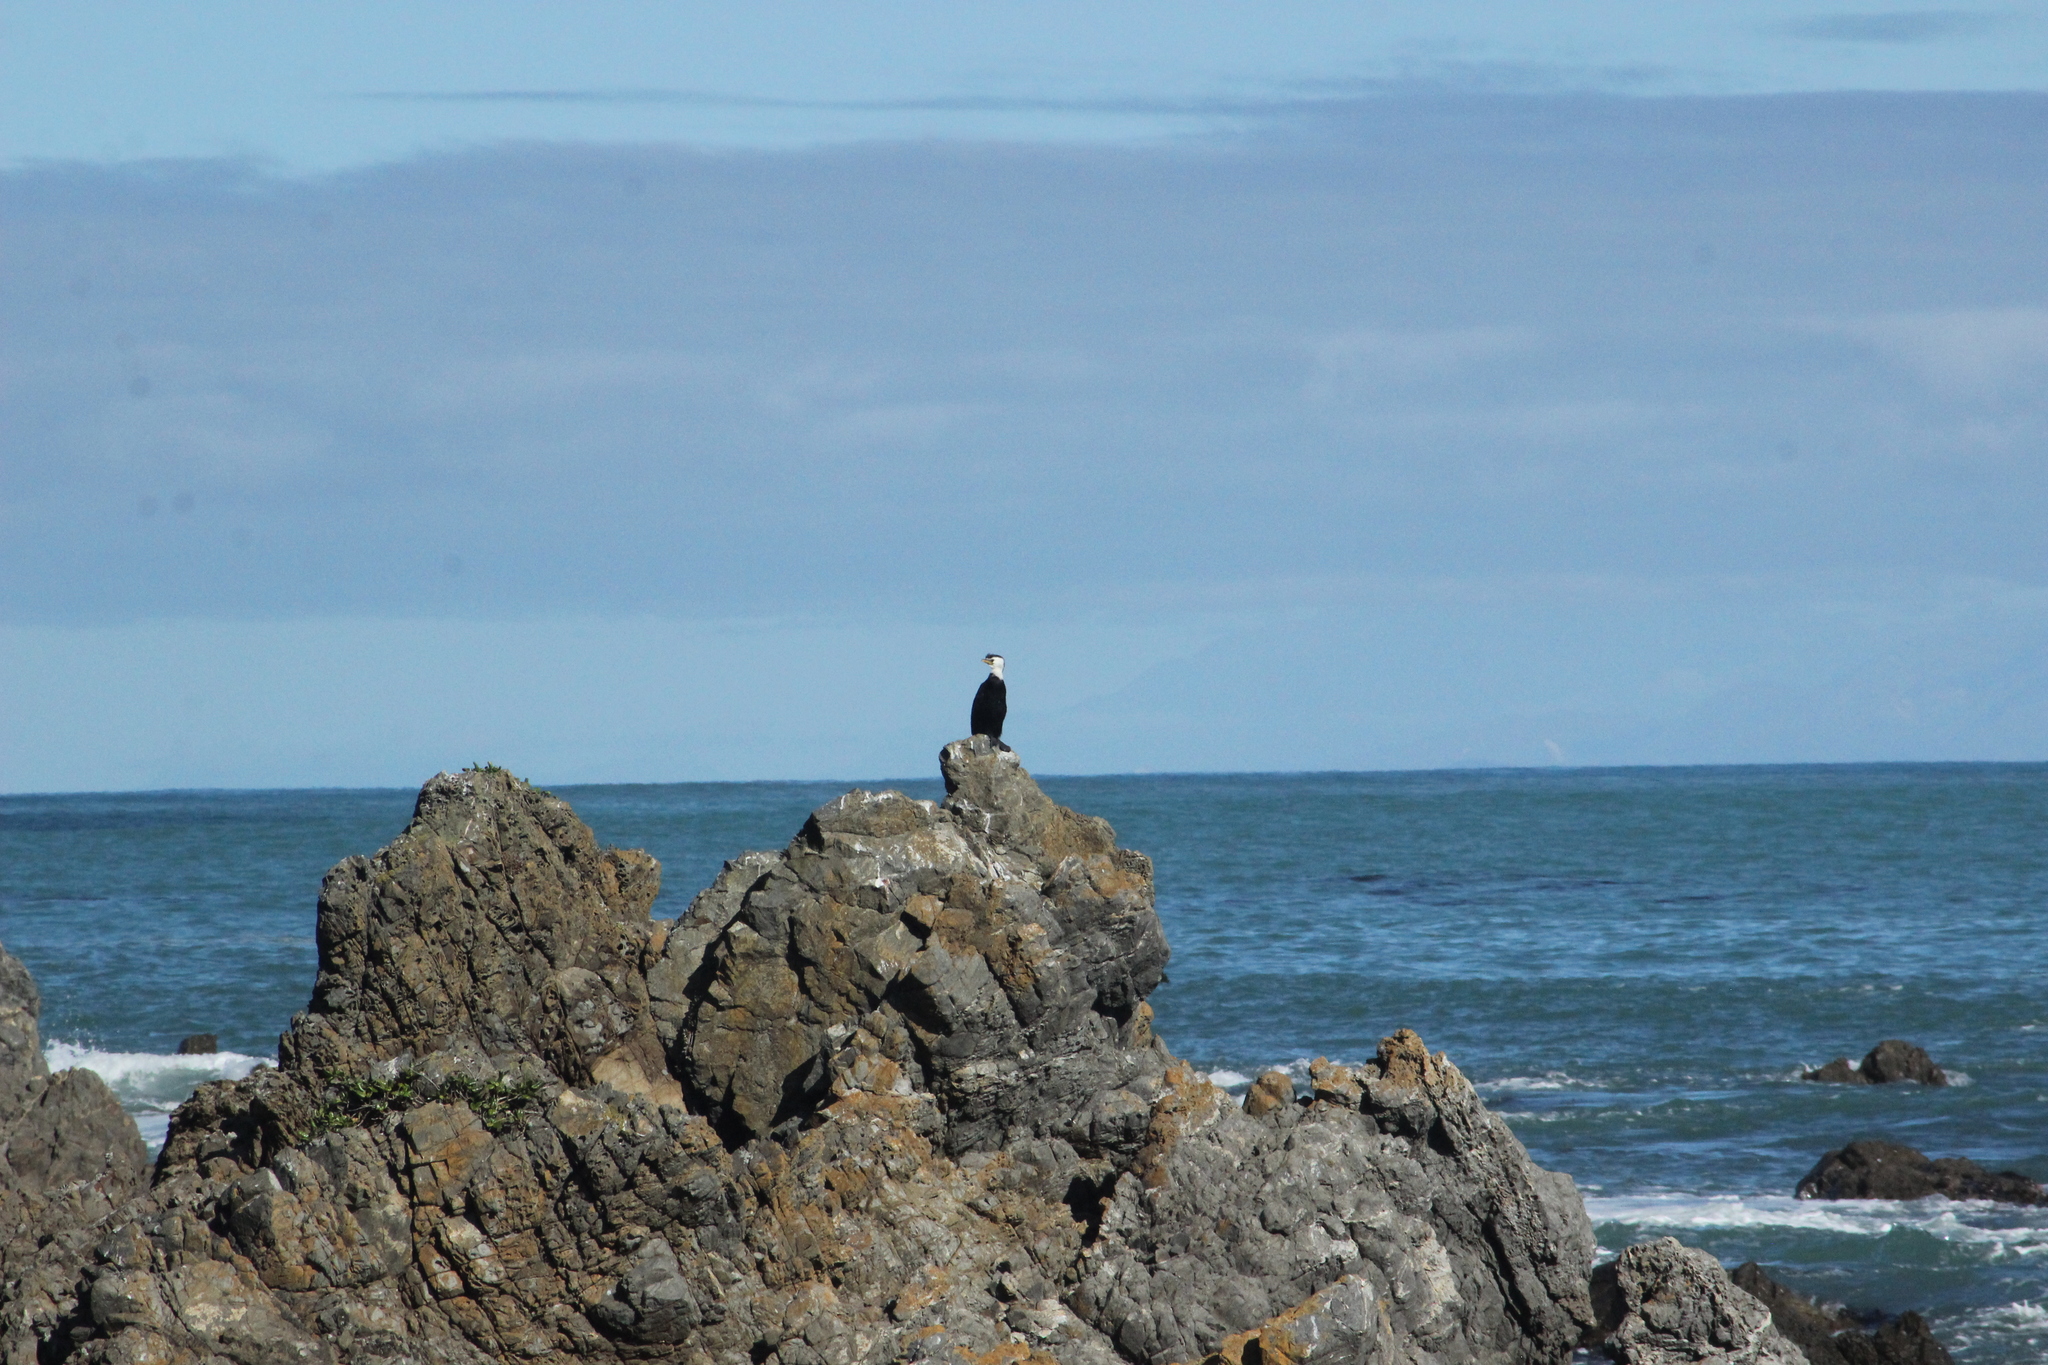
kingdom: Animalia
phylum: Chordata
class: Aves
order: Suliformes
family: Phalacrocoracidae
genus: Microcarbo
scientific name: Microcarbo melanoleucos
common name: Little pied cormorant
